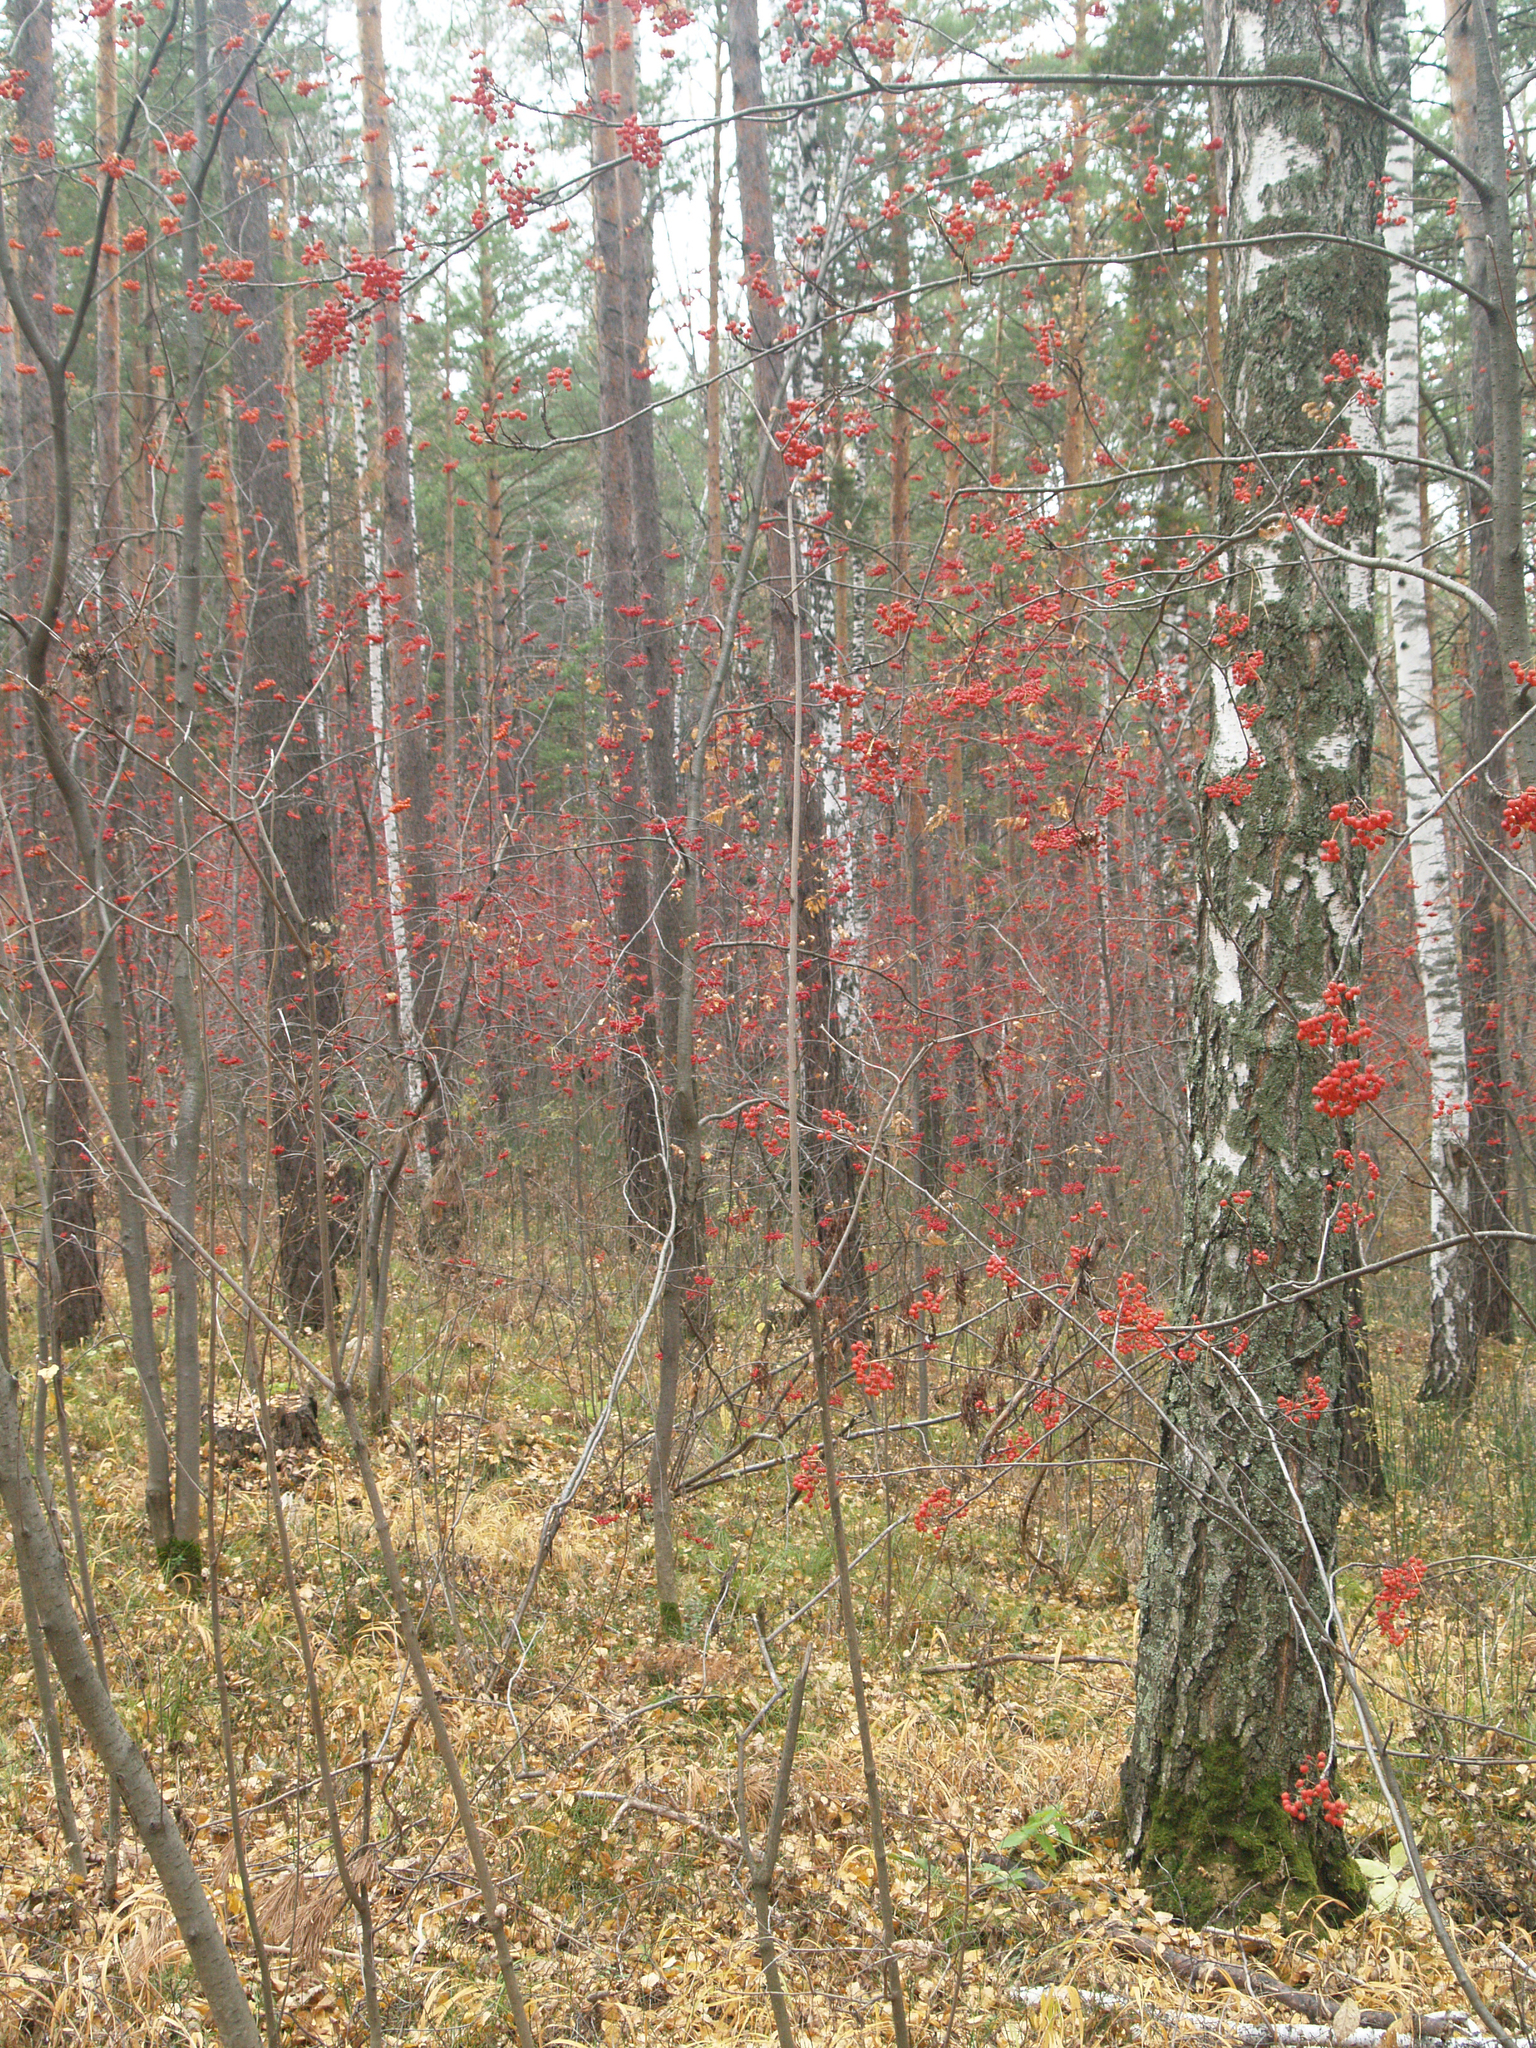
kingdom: Plantae
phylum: Tracheophyta
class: Magnoliopsida
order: Fagales
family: Betulaceae
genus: Betula
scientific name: Betula pendula
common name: Silver birch
